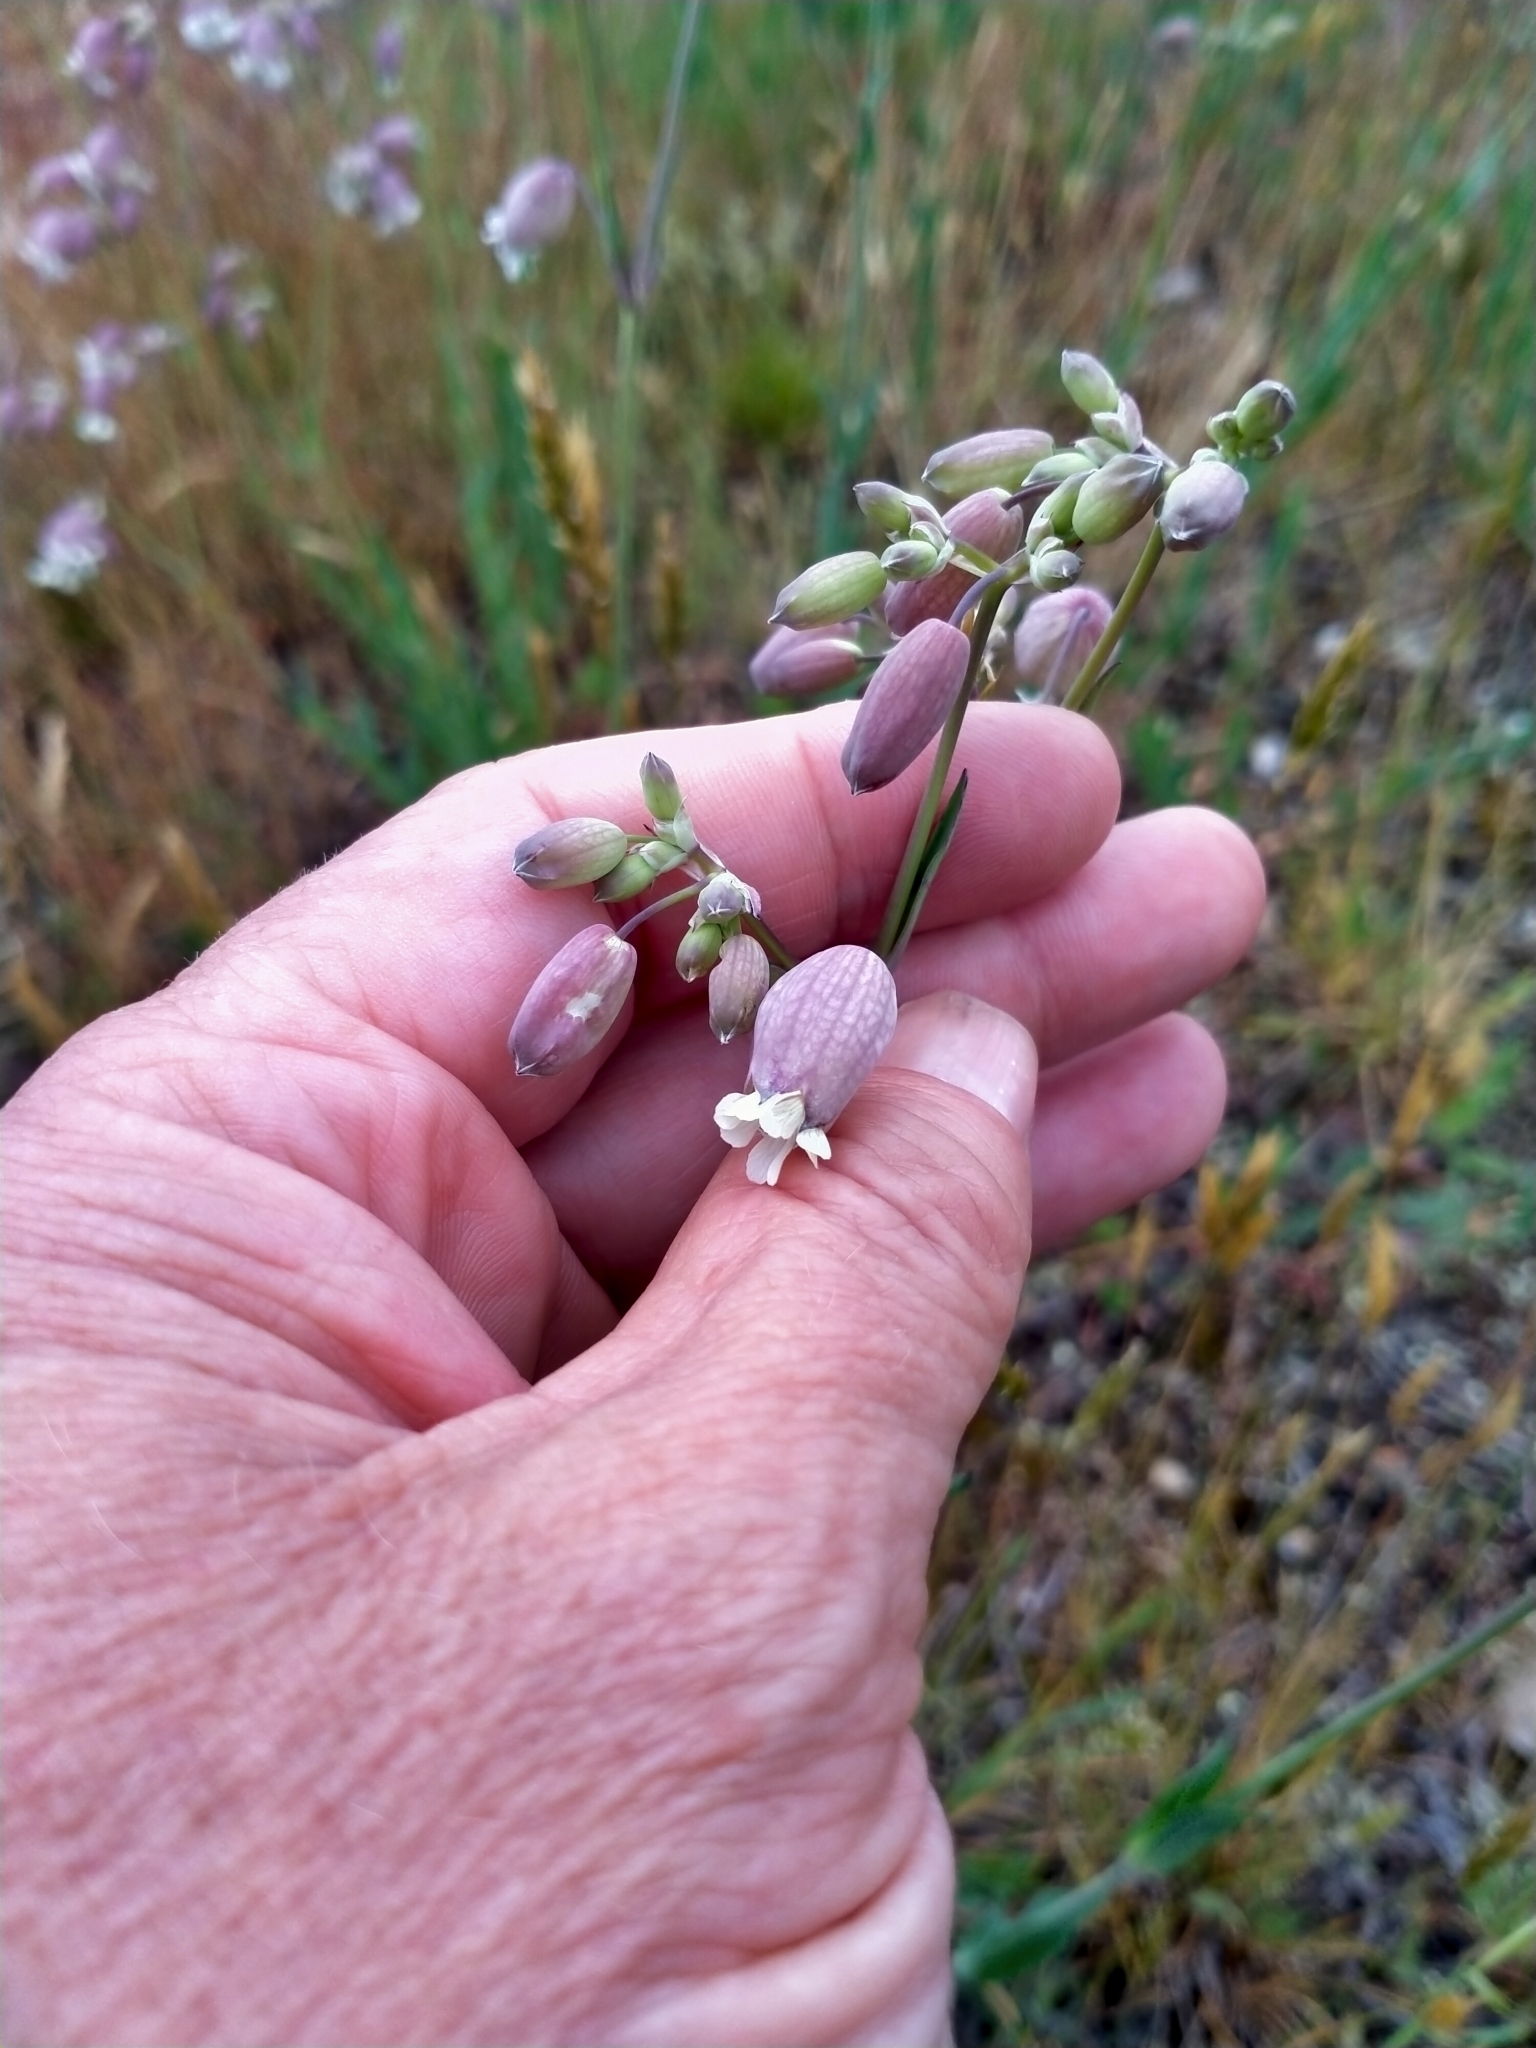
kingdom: Plantae
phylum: Tracheophyta
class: Magnoliopsida
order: Caryophyllales
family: Caryophyllaceae
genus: Silene
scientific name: Silene vulgaris
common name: Bladder campion
